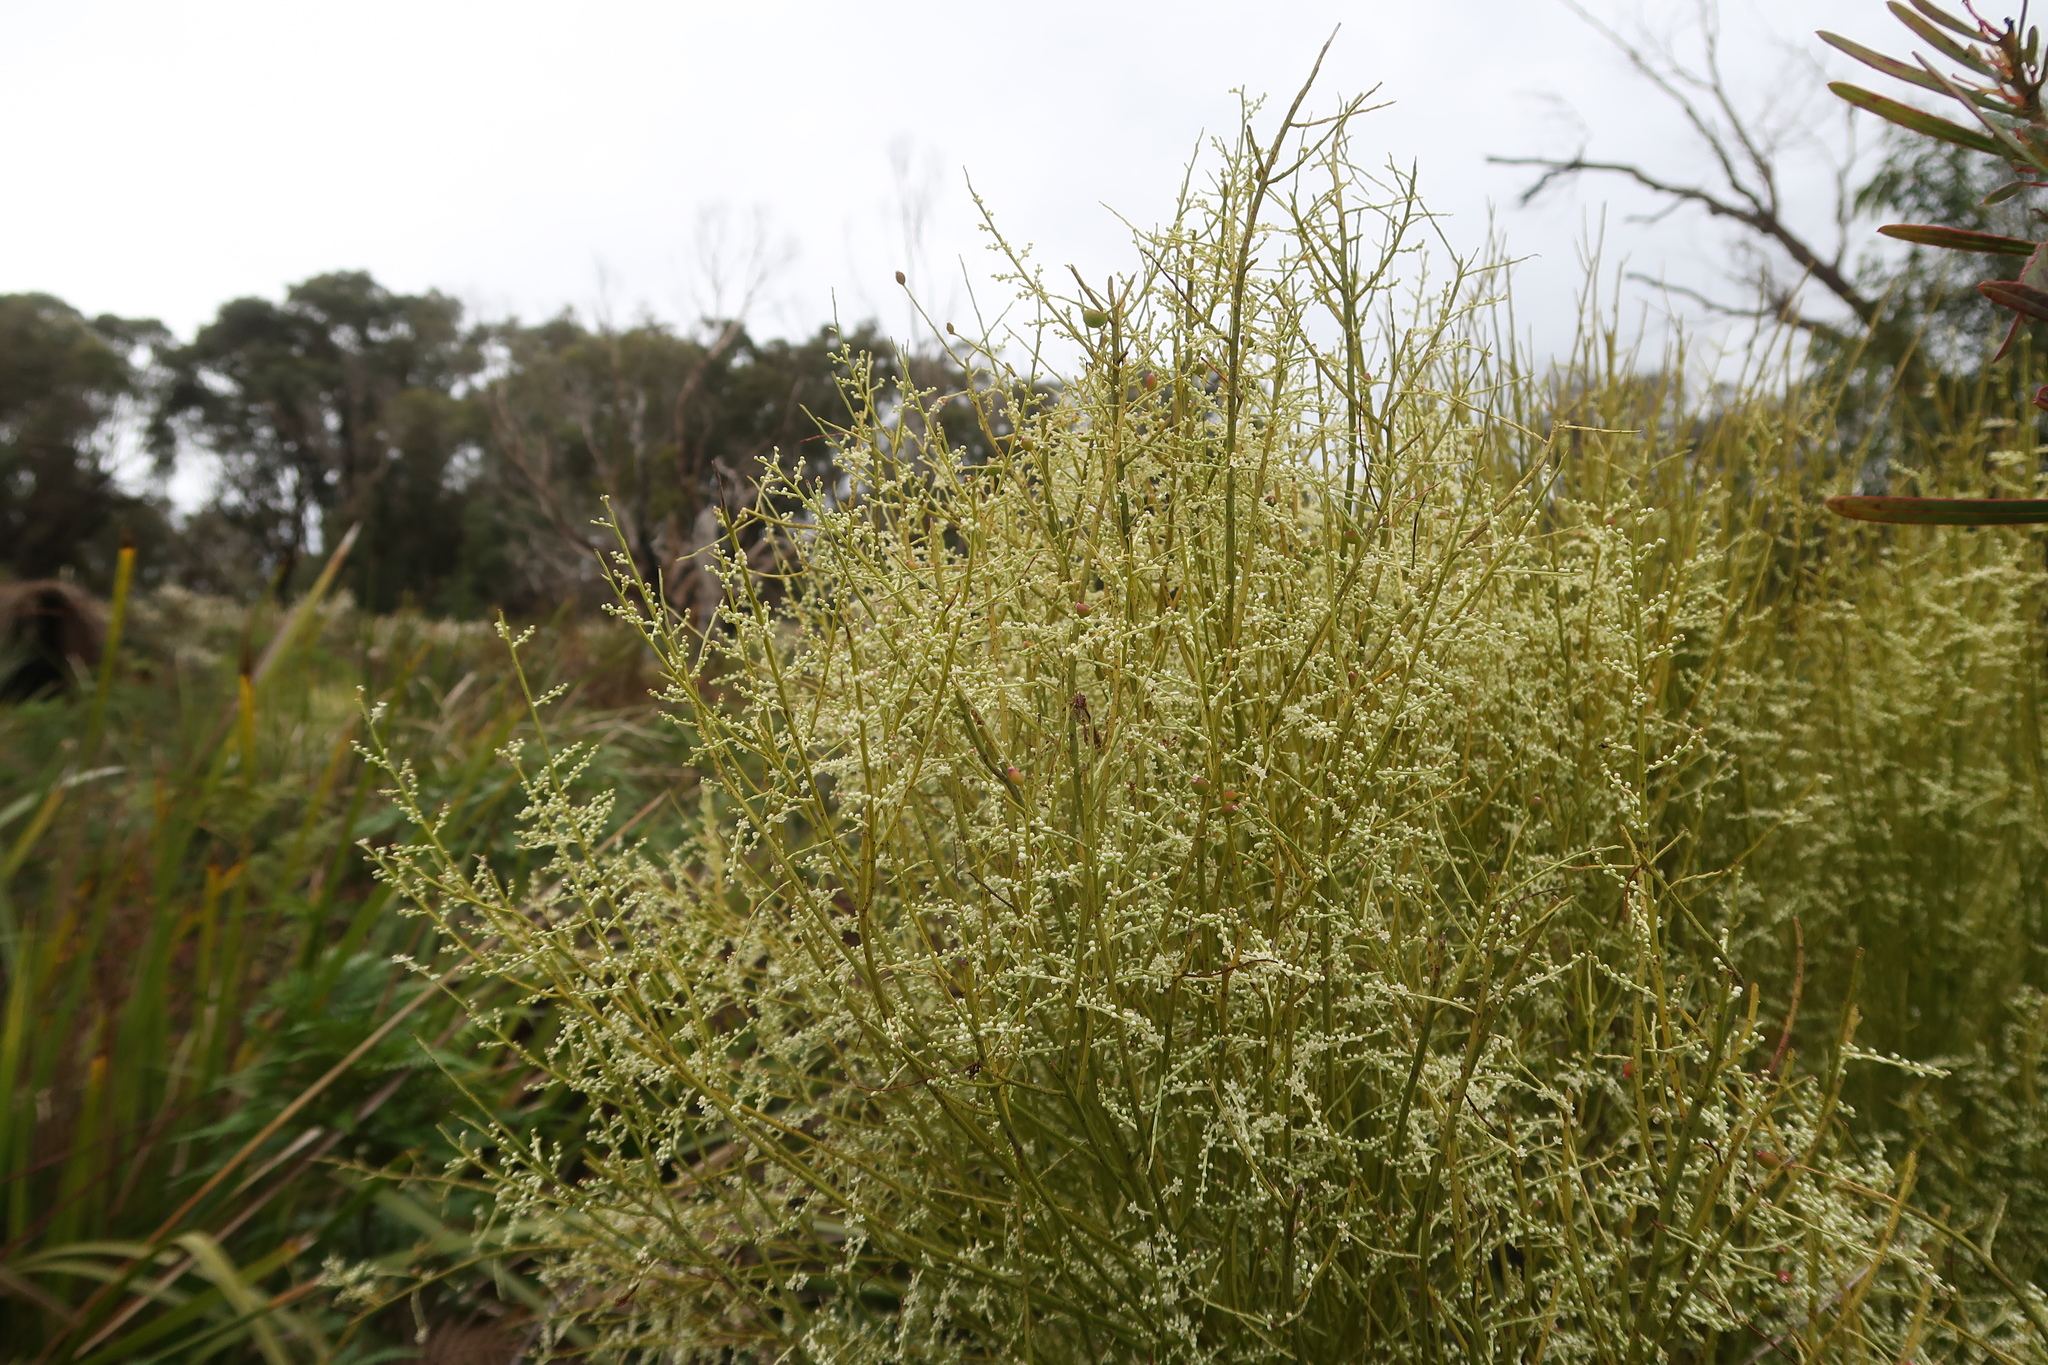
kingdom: Plantae
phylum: Tracheophyta
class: Magnoliopsida
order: Santalales
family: Amphorogynaceae
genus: Leptomeria
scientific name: Leptomeria drupacea
